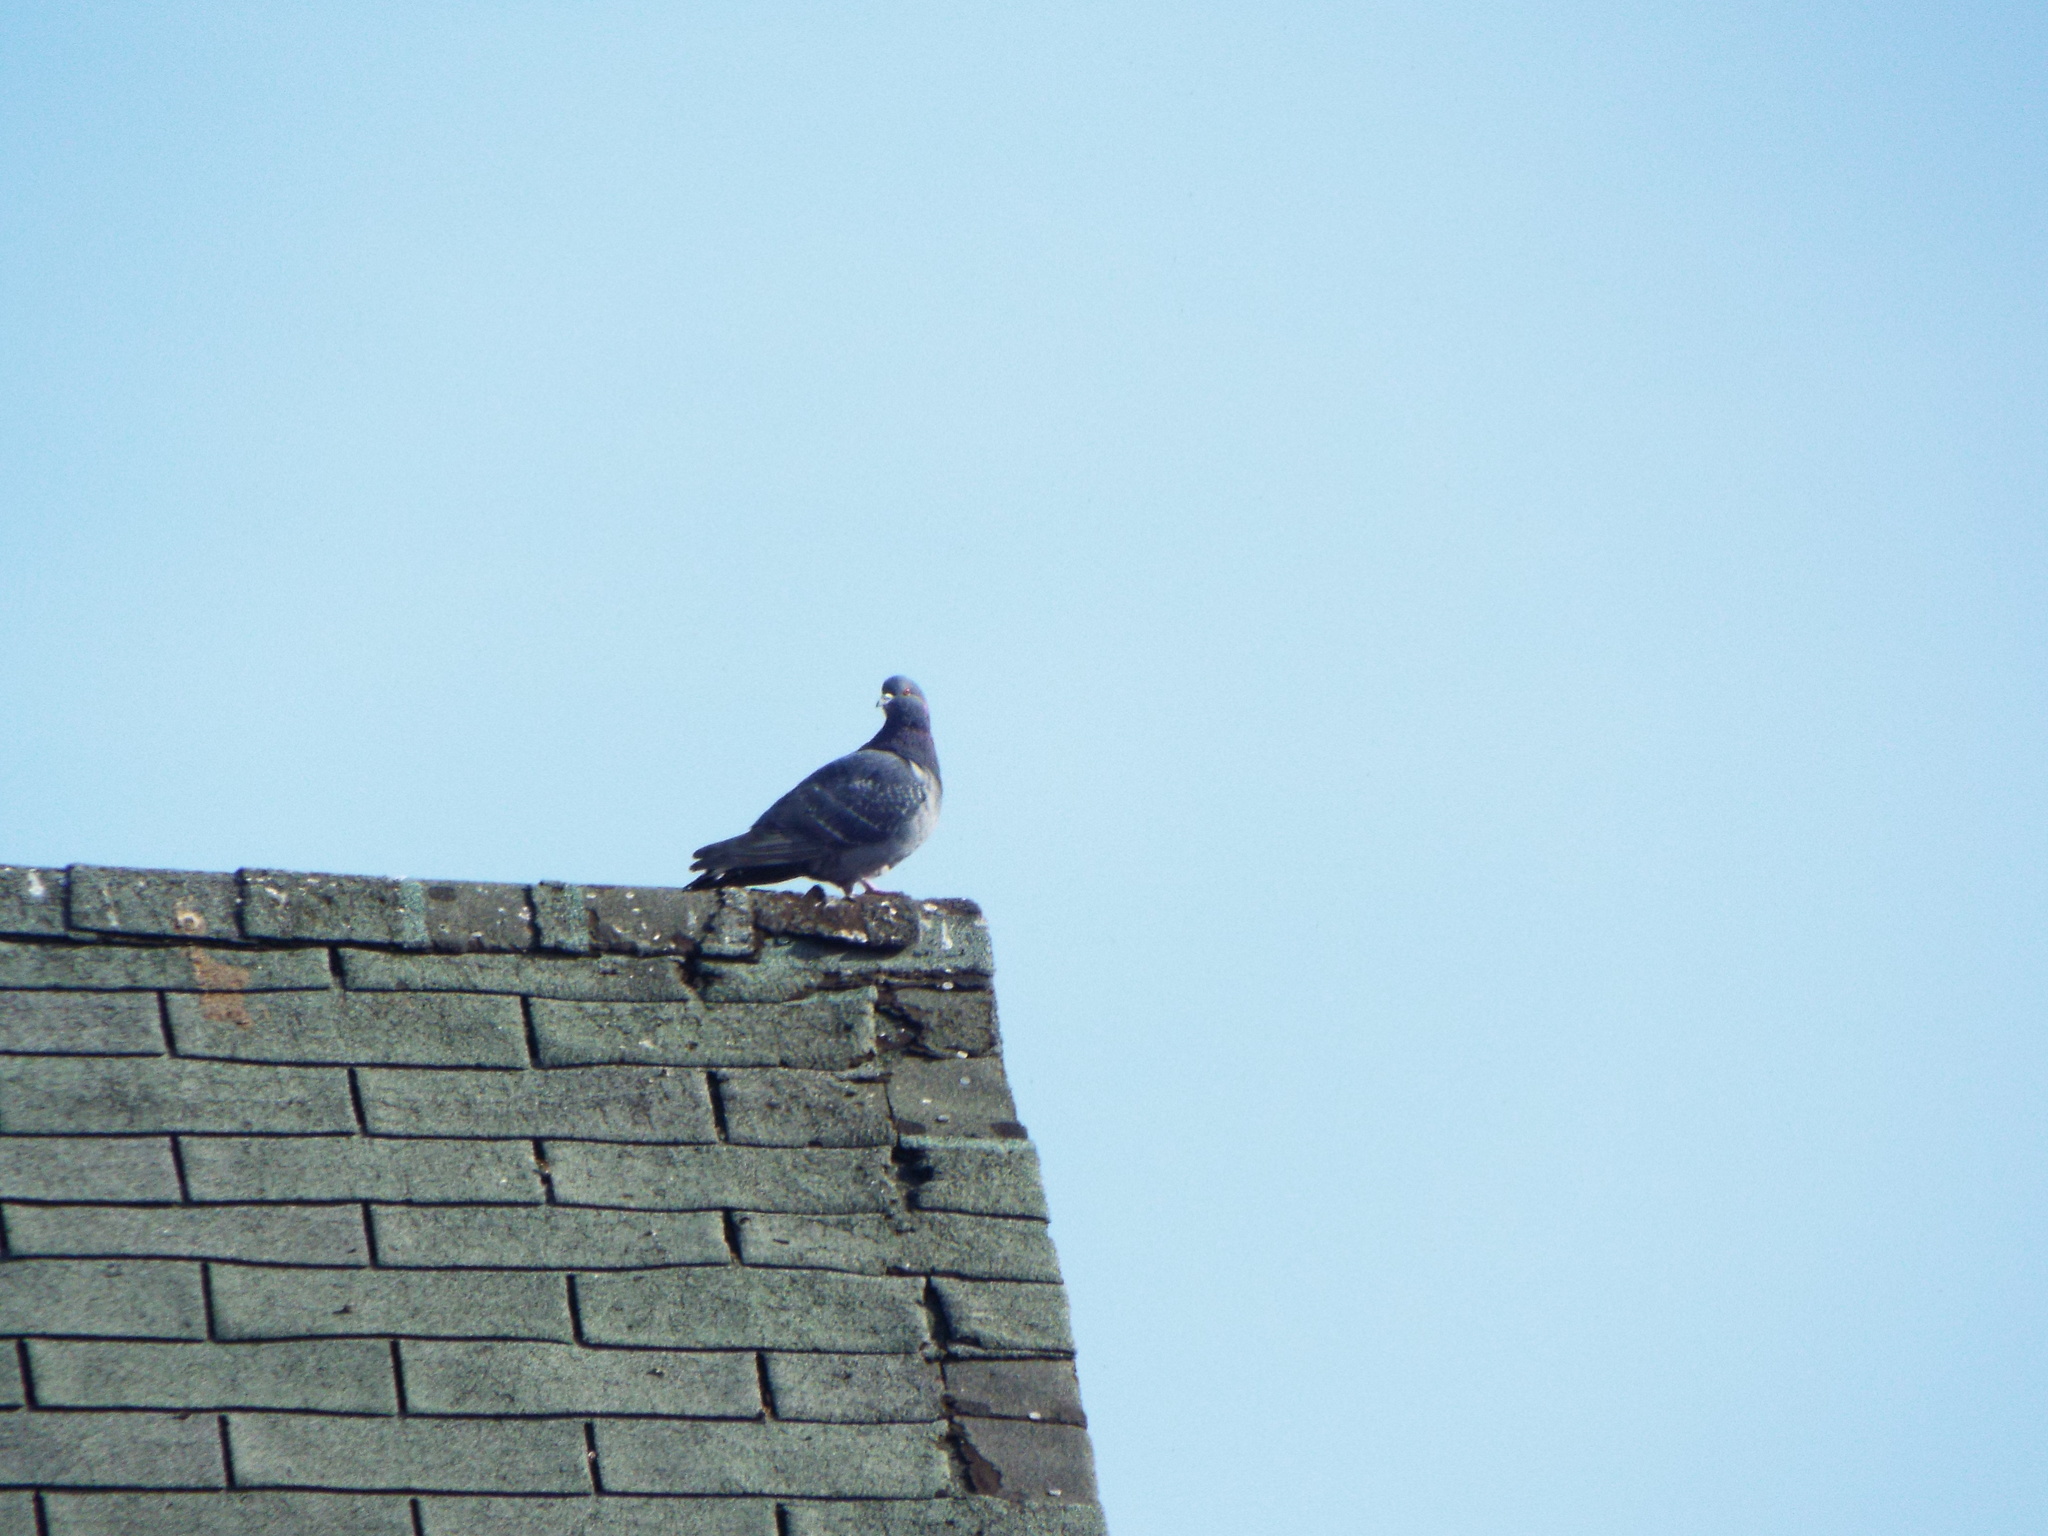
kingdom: Animalia
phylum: Chordata
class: Aves
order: Columbiformes
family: Columbidae
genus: Columba
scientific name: Columba livia
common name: Rock pigeon
